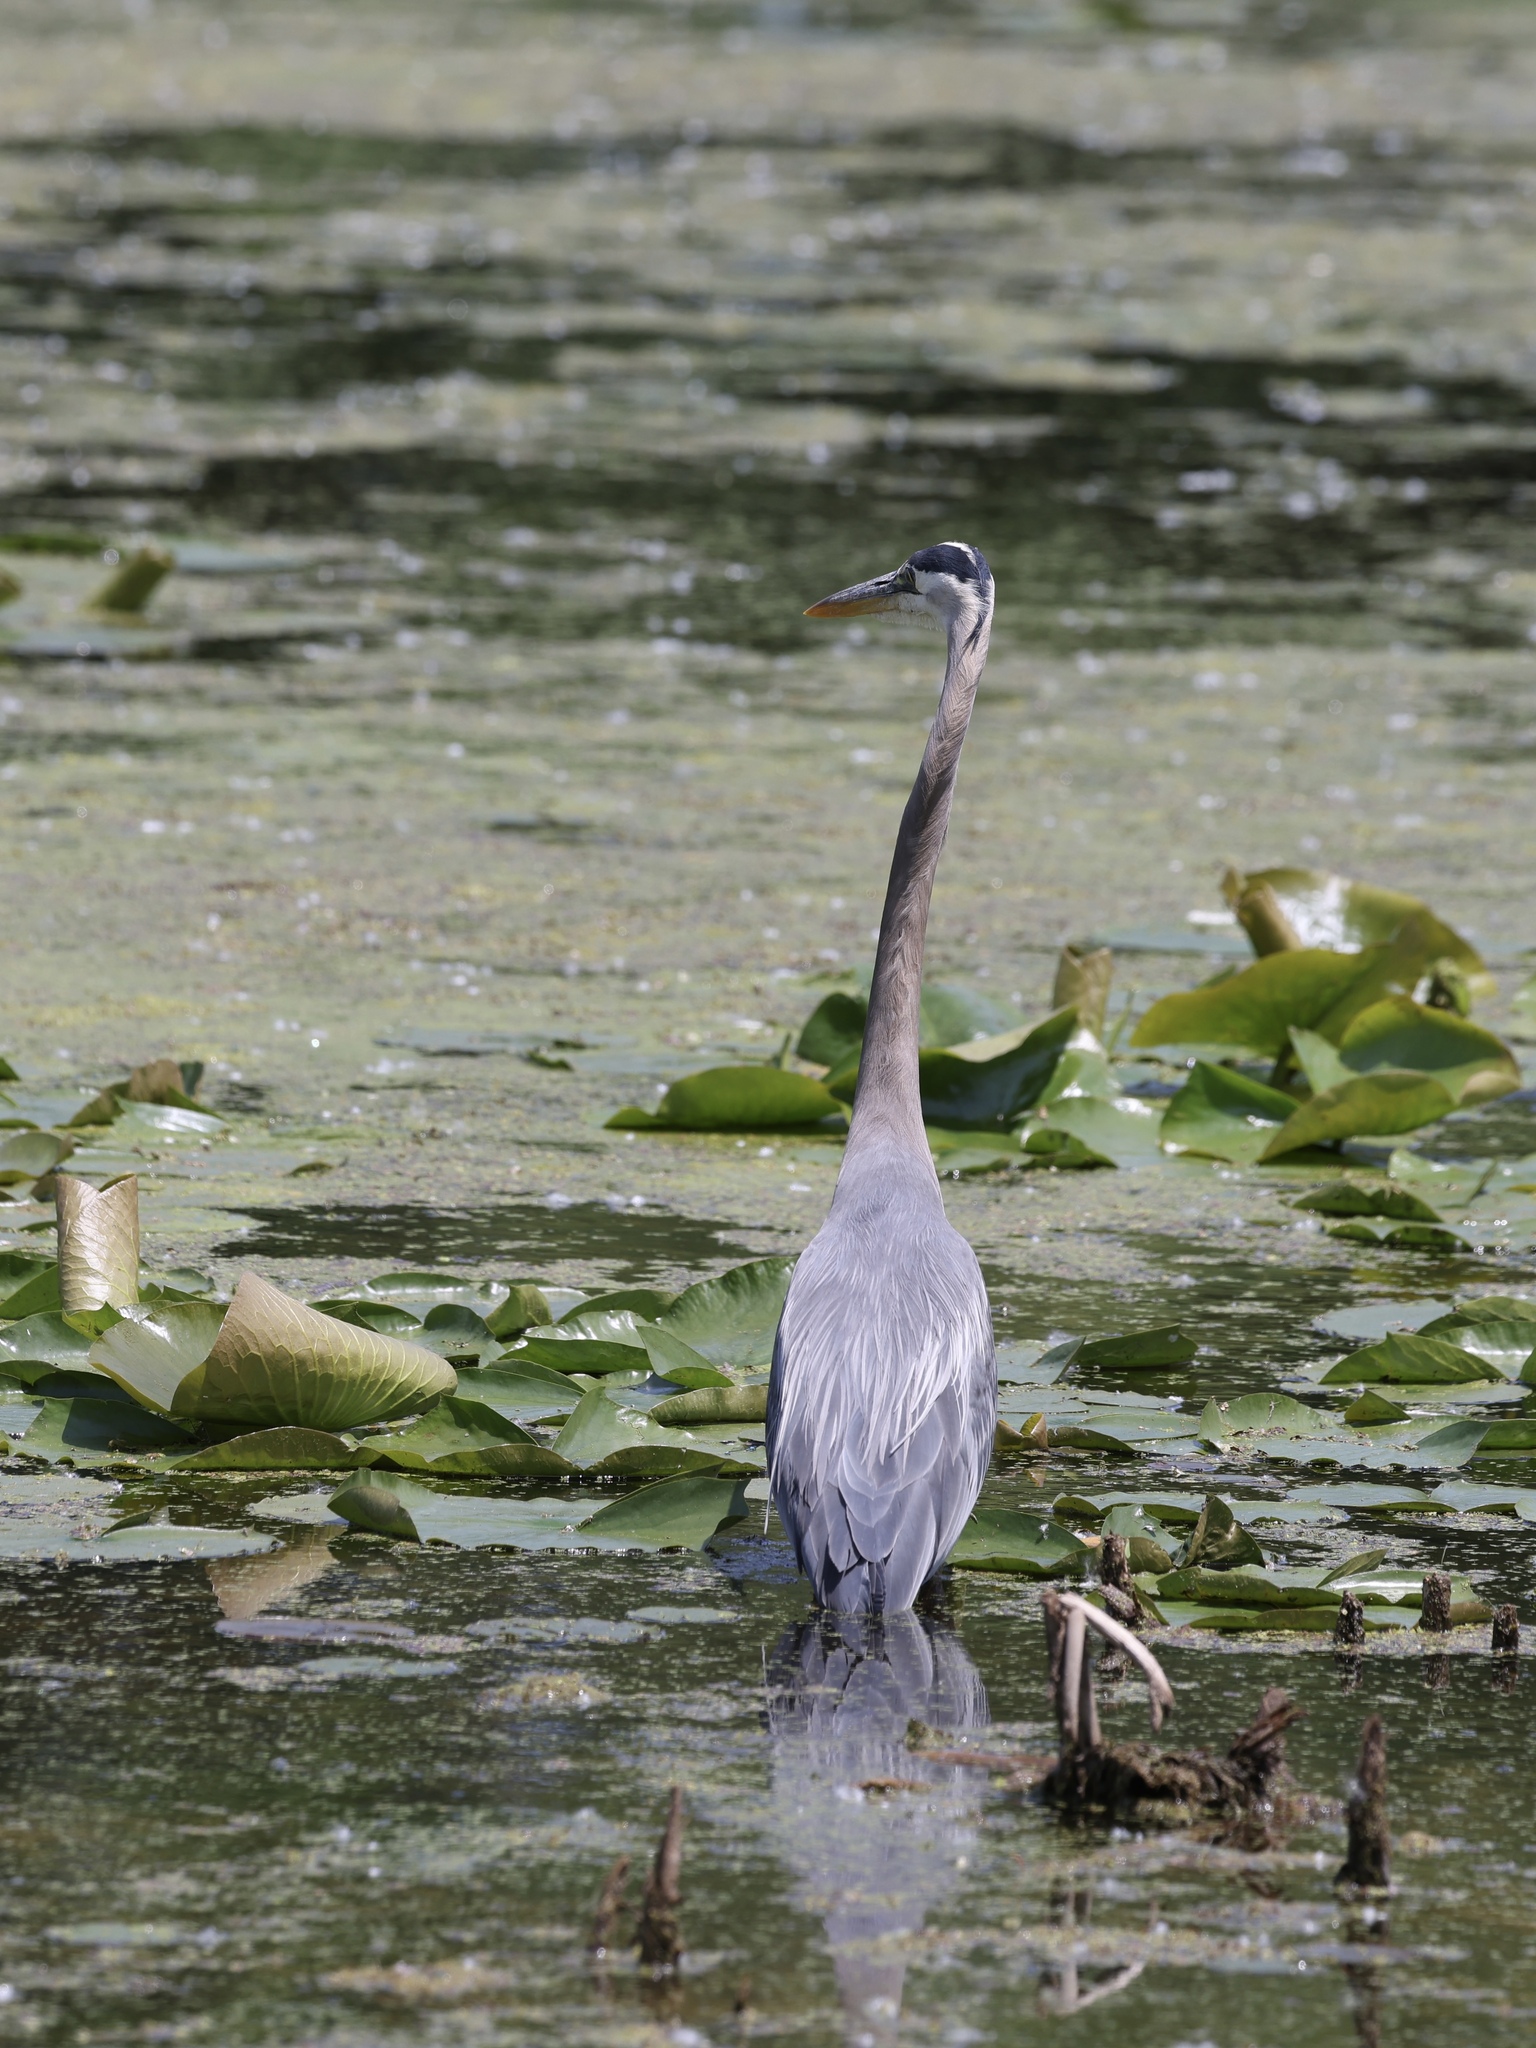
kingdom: Animalia
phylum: Chordata
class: Aves
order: Pelecaniformes
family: Ardeidae
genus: Ardea
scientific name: Ardea herodias
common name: Great blue heron
